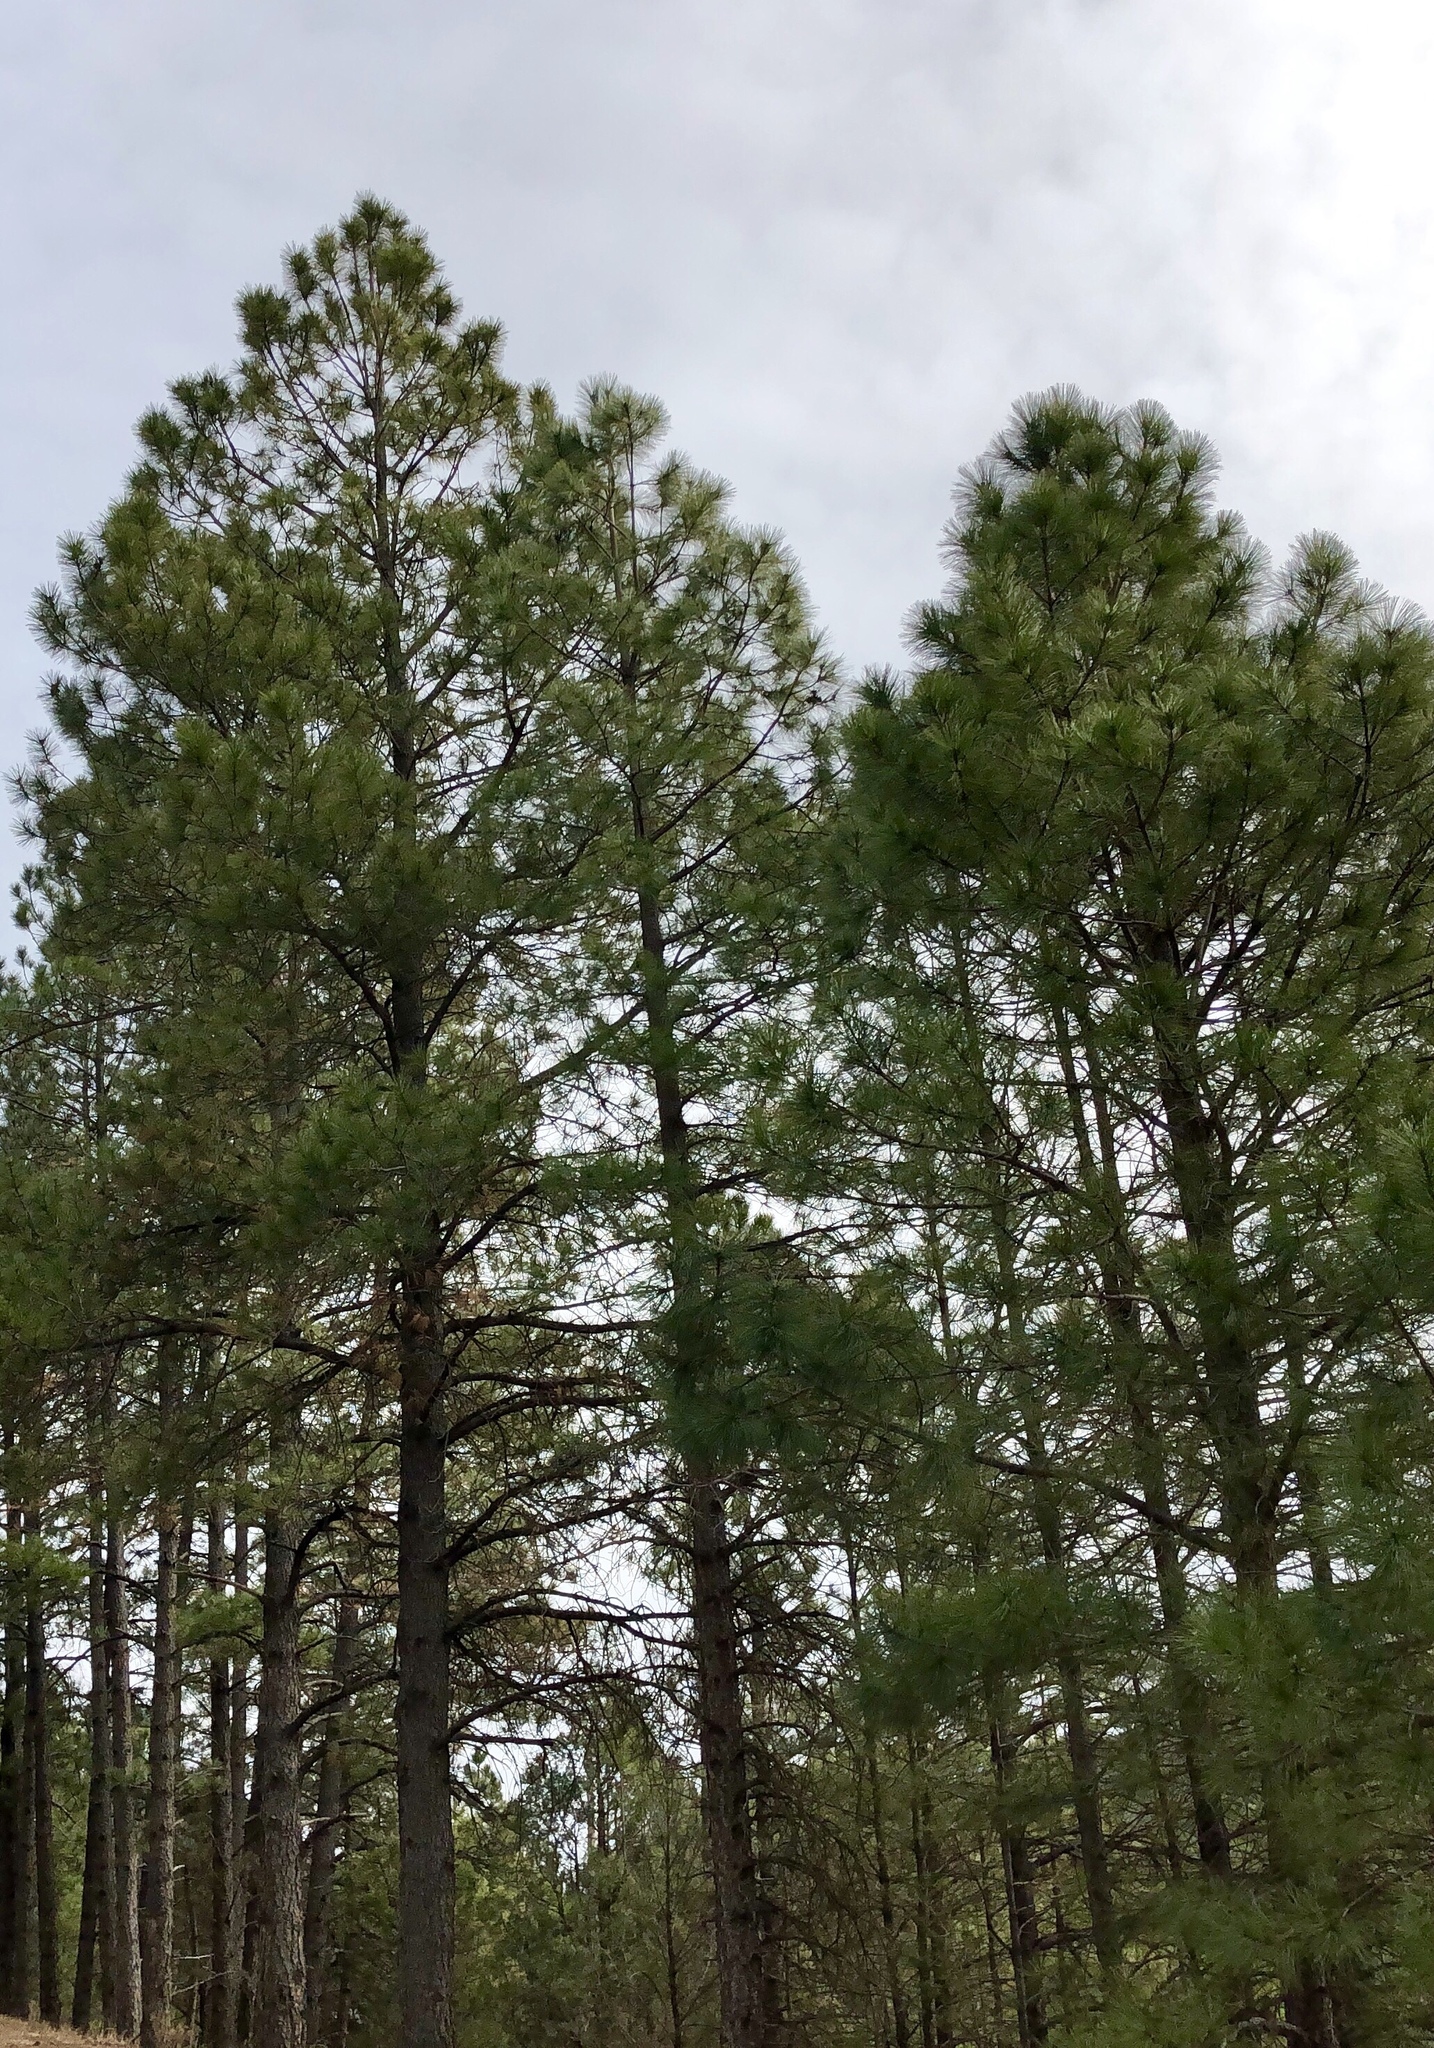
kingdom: Plantae
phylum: Tracheophyta
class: Pinopsida
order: Pinales
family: Pinaceae
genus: Pinus
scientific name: Pinus ponderosa
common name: Western yellow-pine
